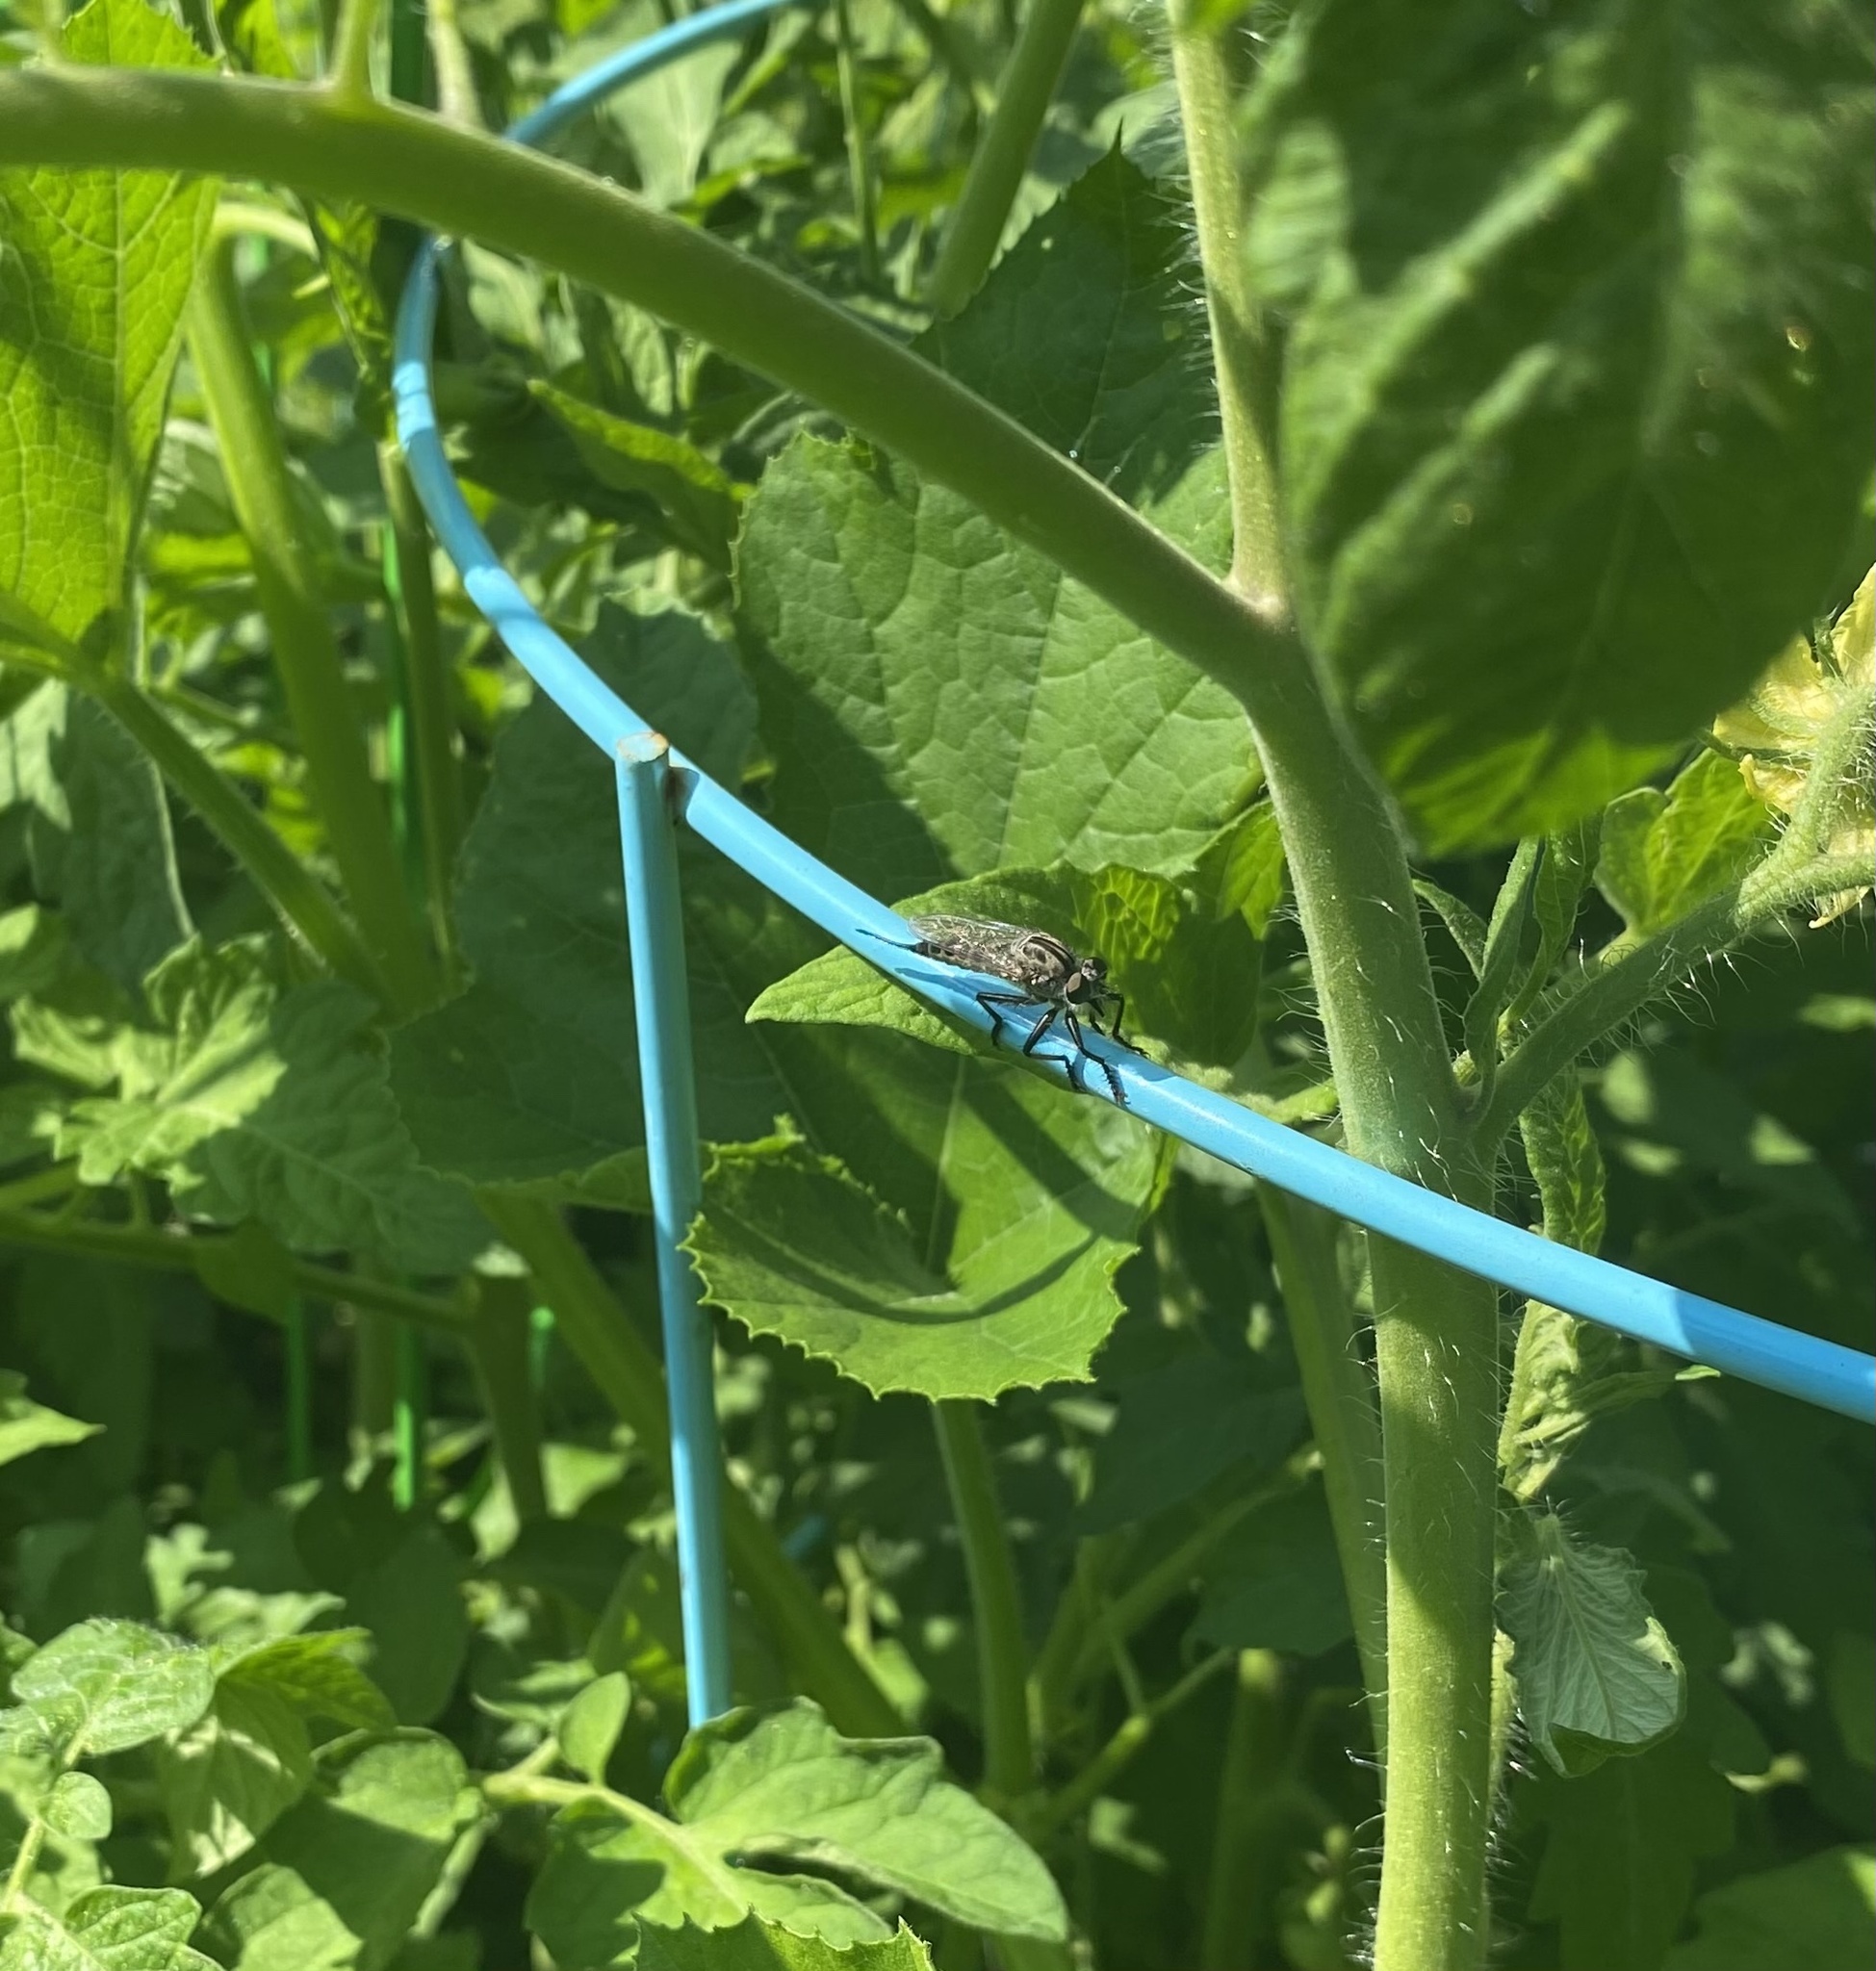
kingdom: Animalia
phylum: Arthropoda
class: Insecta
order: Diptera
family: Asilidae
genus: Efferia
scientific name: Efferia aestuans
